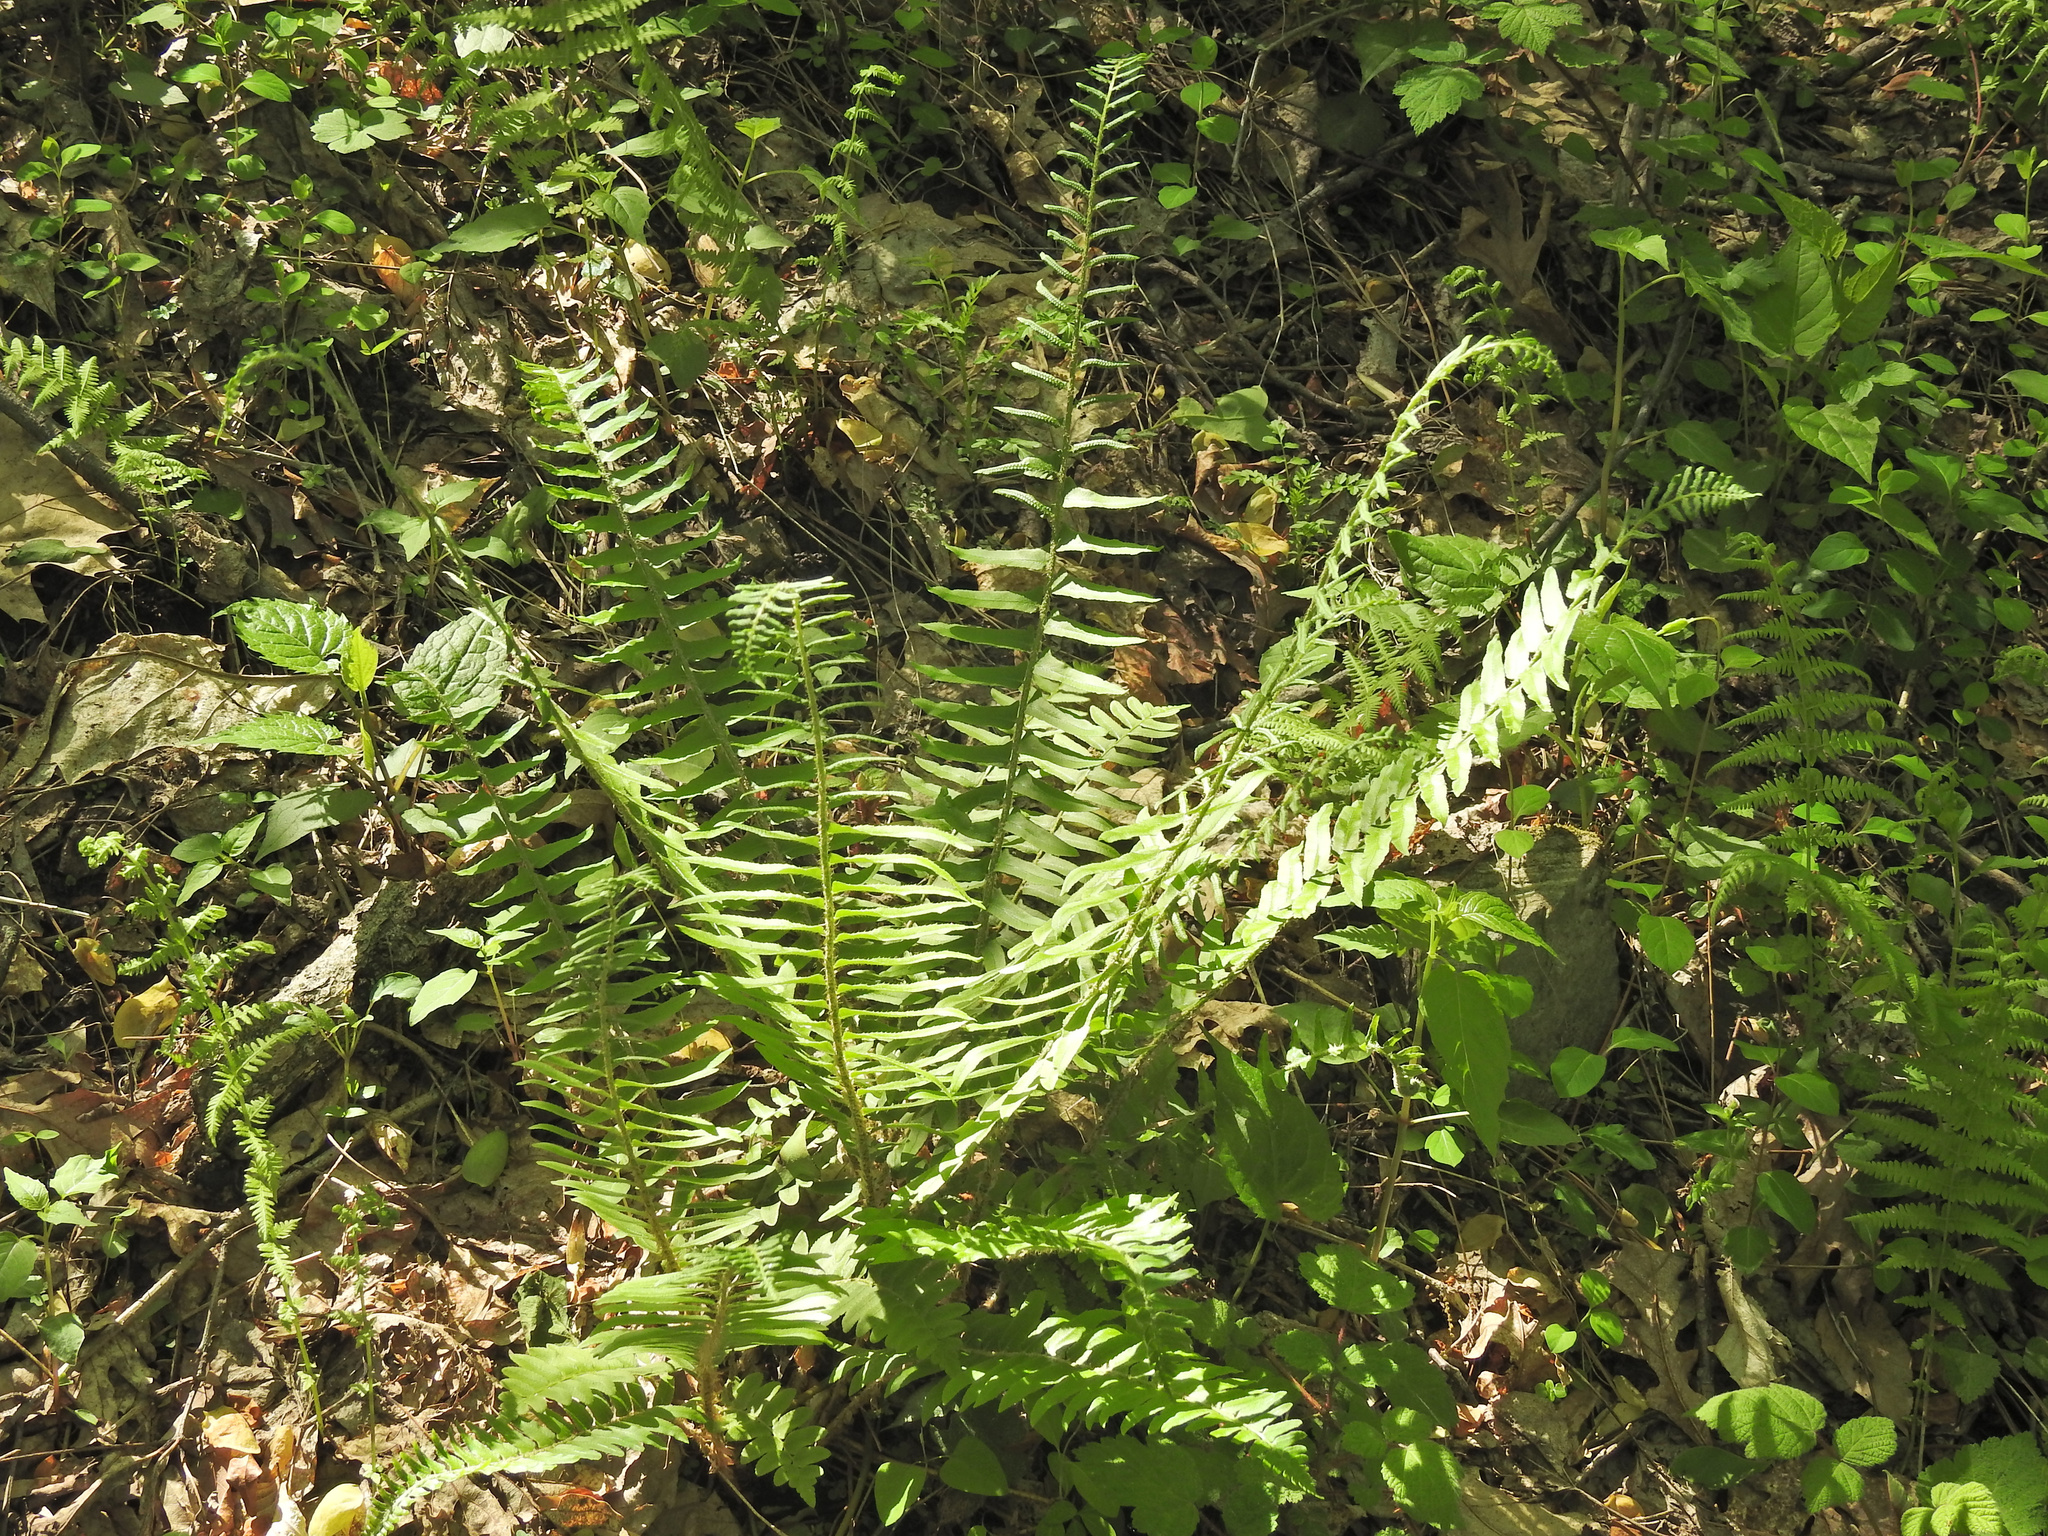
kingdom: Plantae
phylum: Tracheophyta
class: Polypodiopsida
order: Polypodiales
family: Dryopteridaceae
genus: Polystichum
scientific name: Polystichum acrostichoides
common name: Christmas fern
